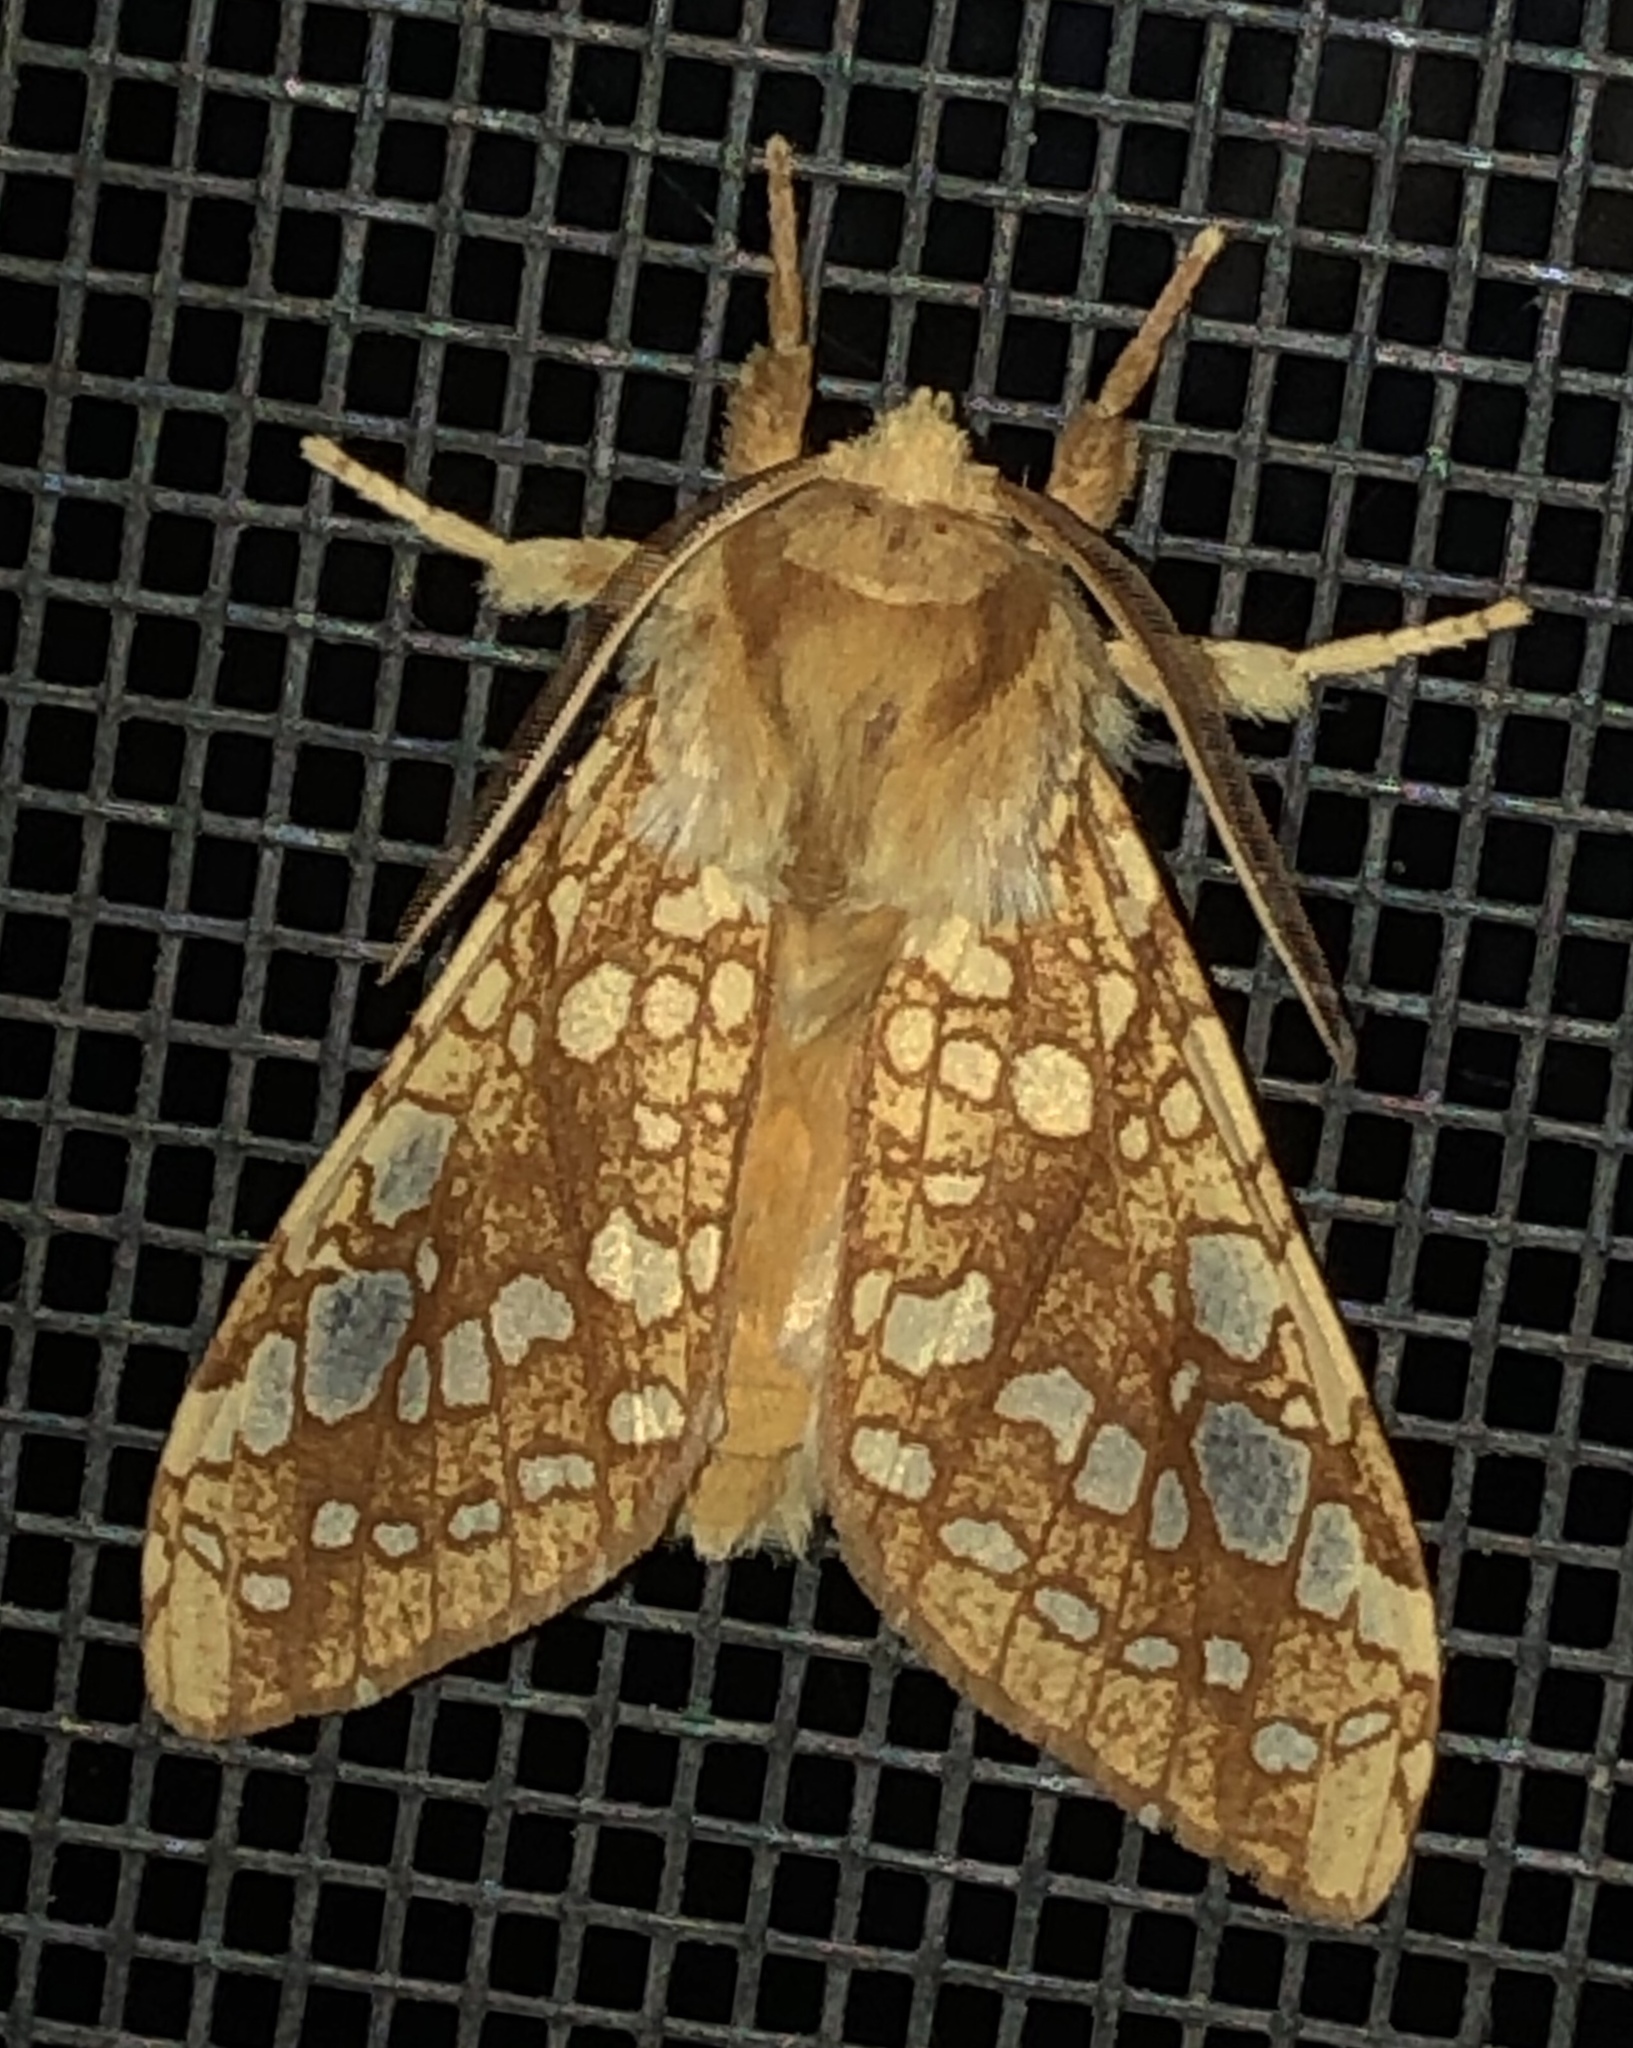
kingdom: Animalia
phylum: Arthropoda
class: Insecta
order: Lepidoptera
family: Erebidae
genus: Lophocampa
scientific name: Lophocampa caryae
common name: Hickory tussock moth
